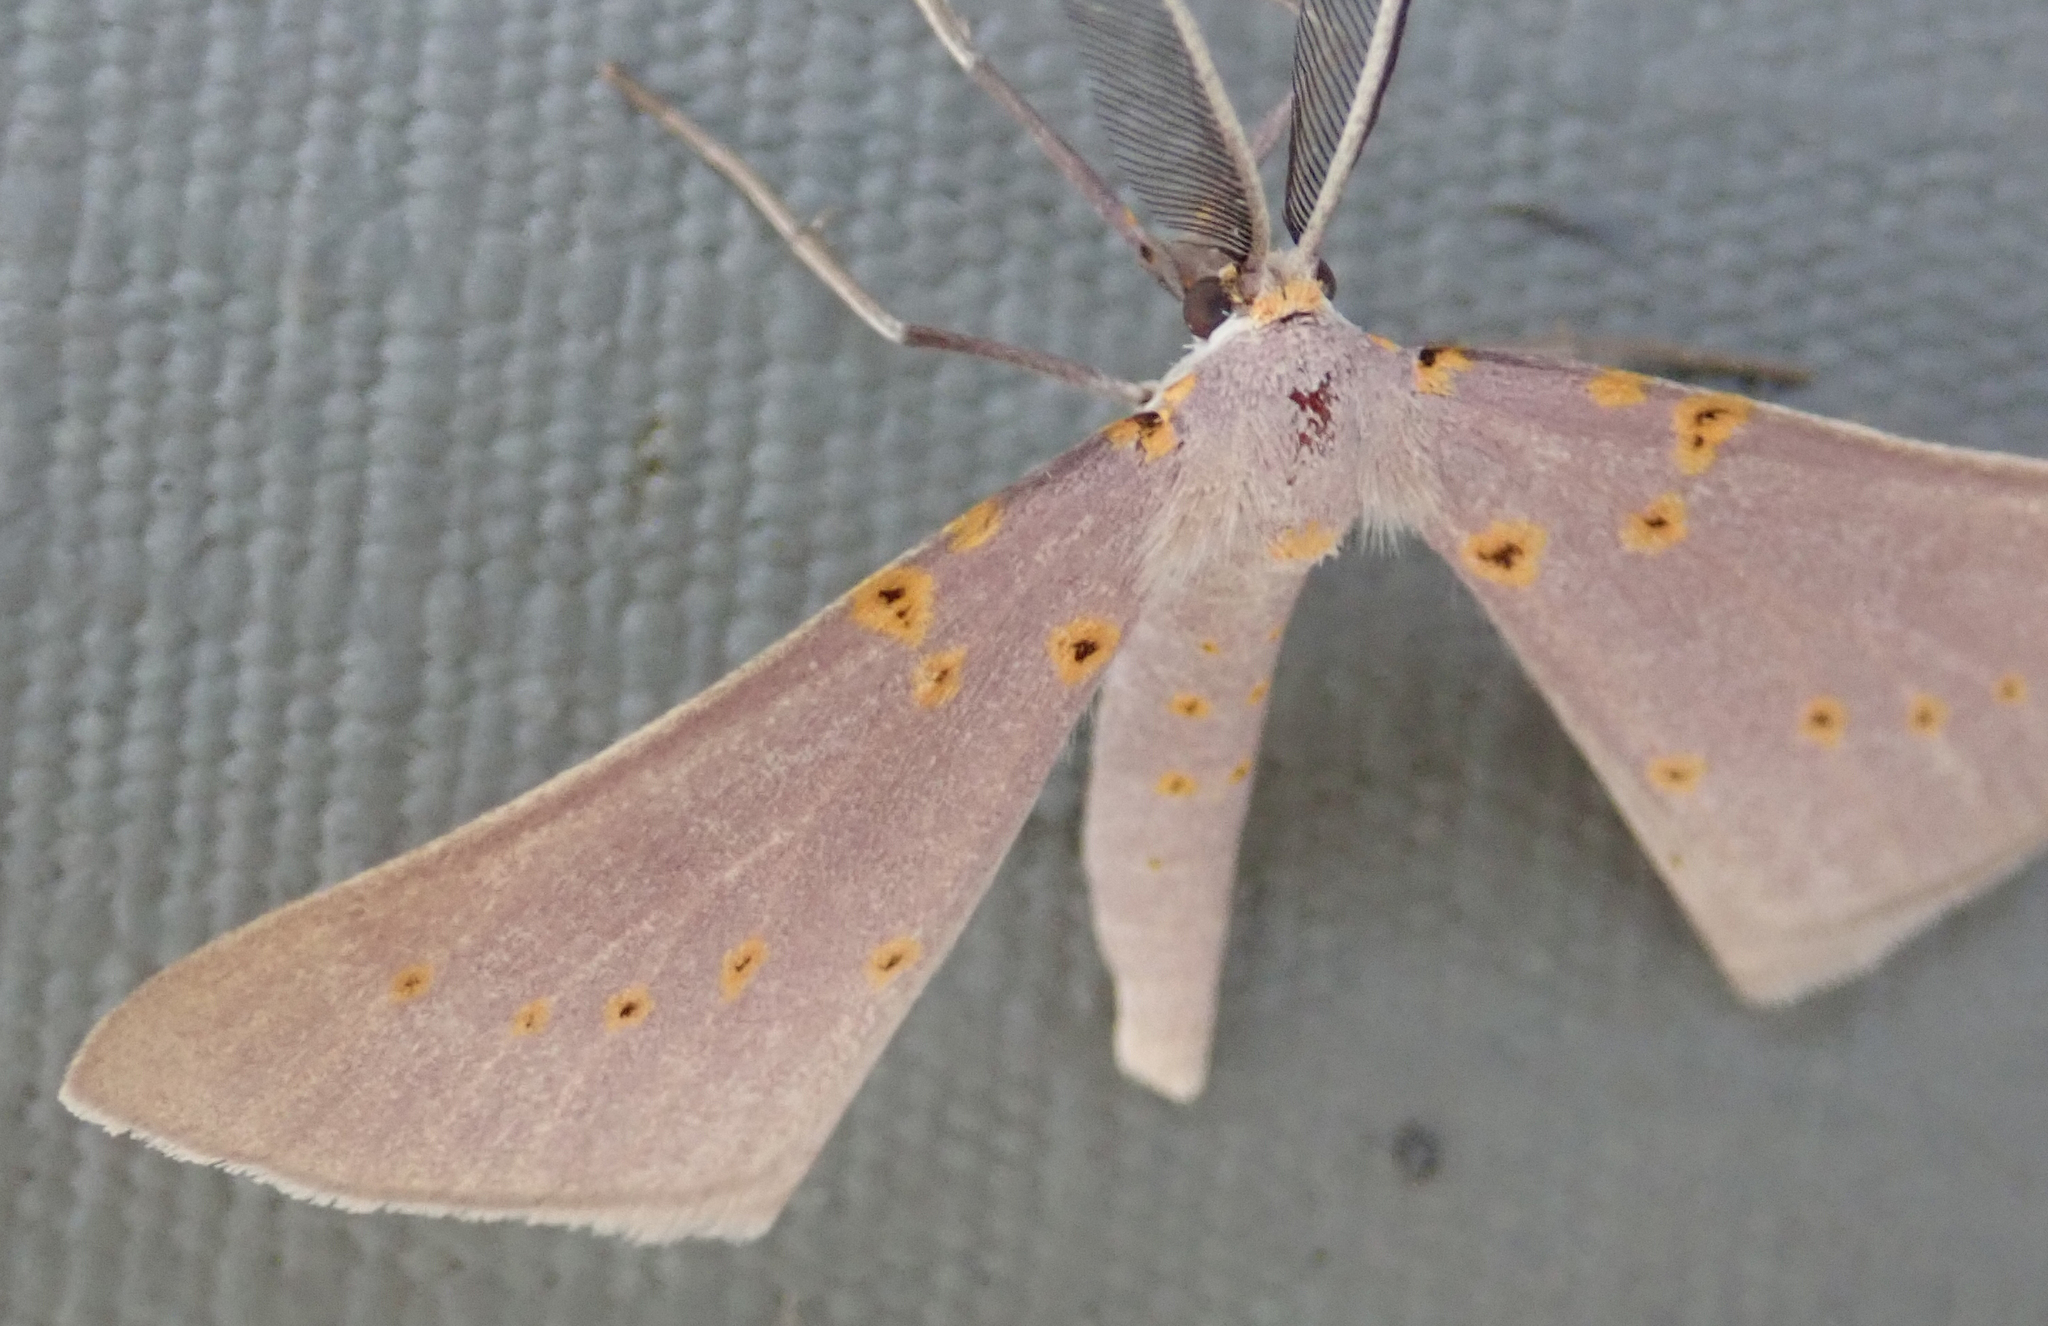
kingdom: Animalia
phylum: Arthropoda
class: Insecta
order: Lepidoptera
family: Geometridae
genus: Nassinia
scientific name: Nassinia pretoria
